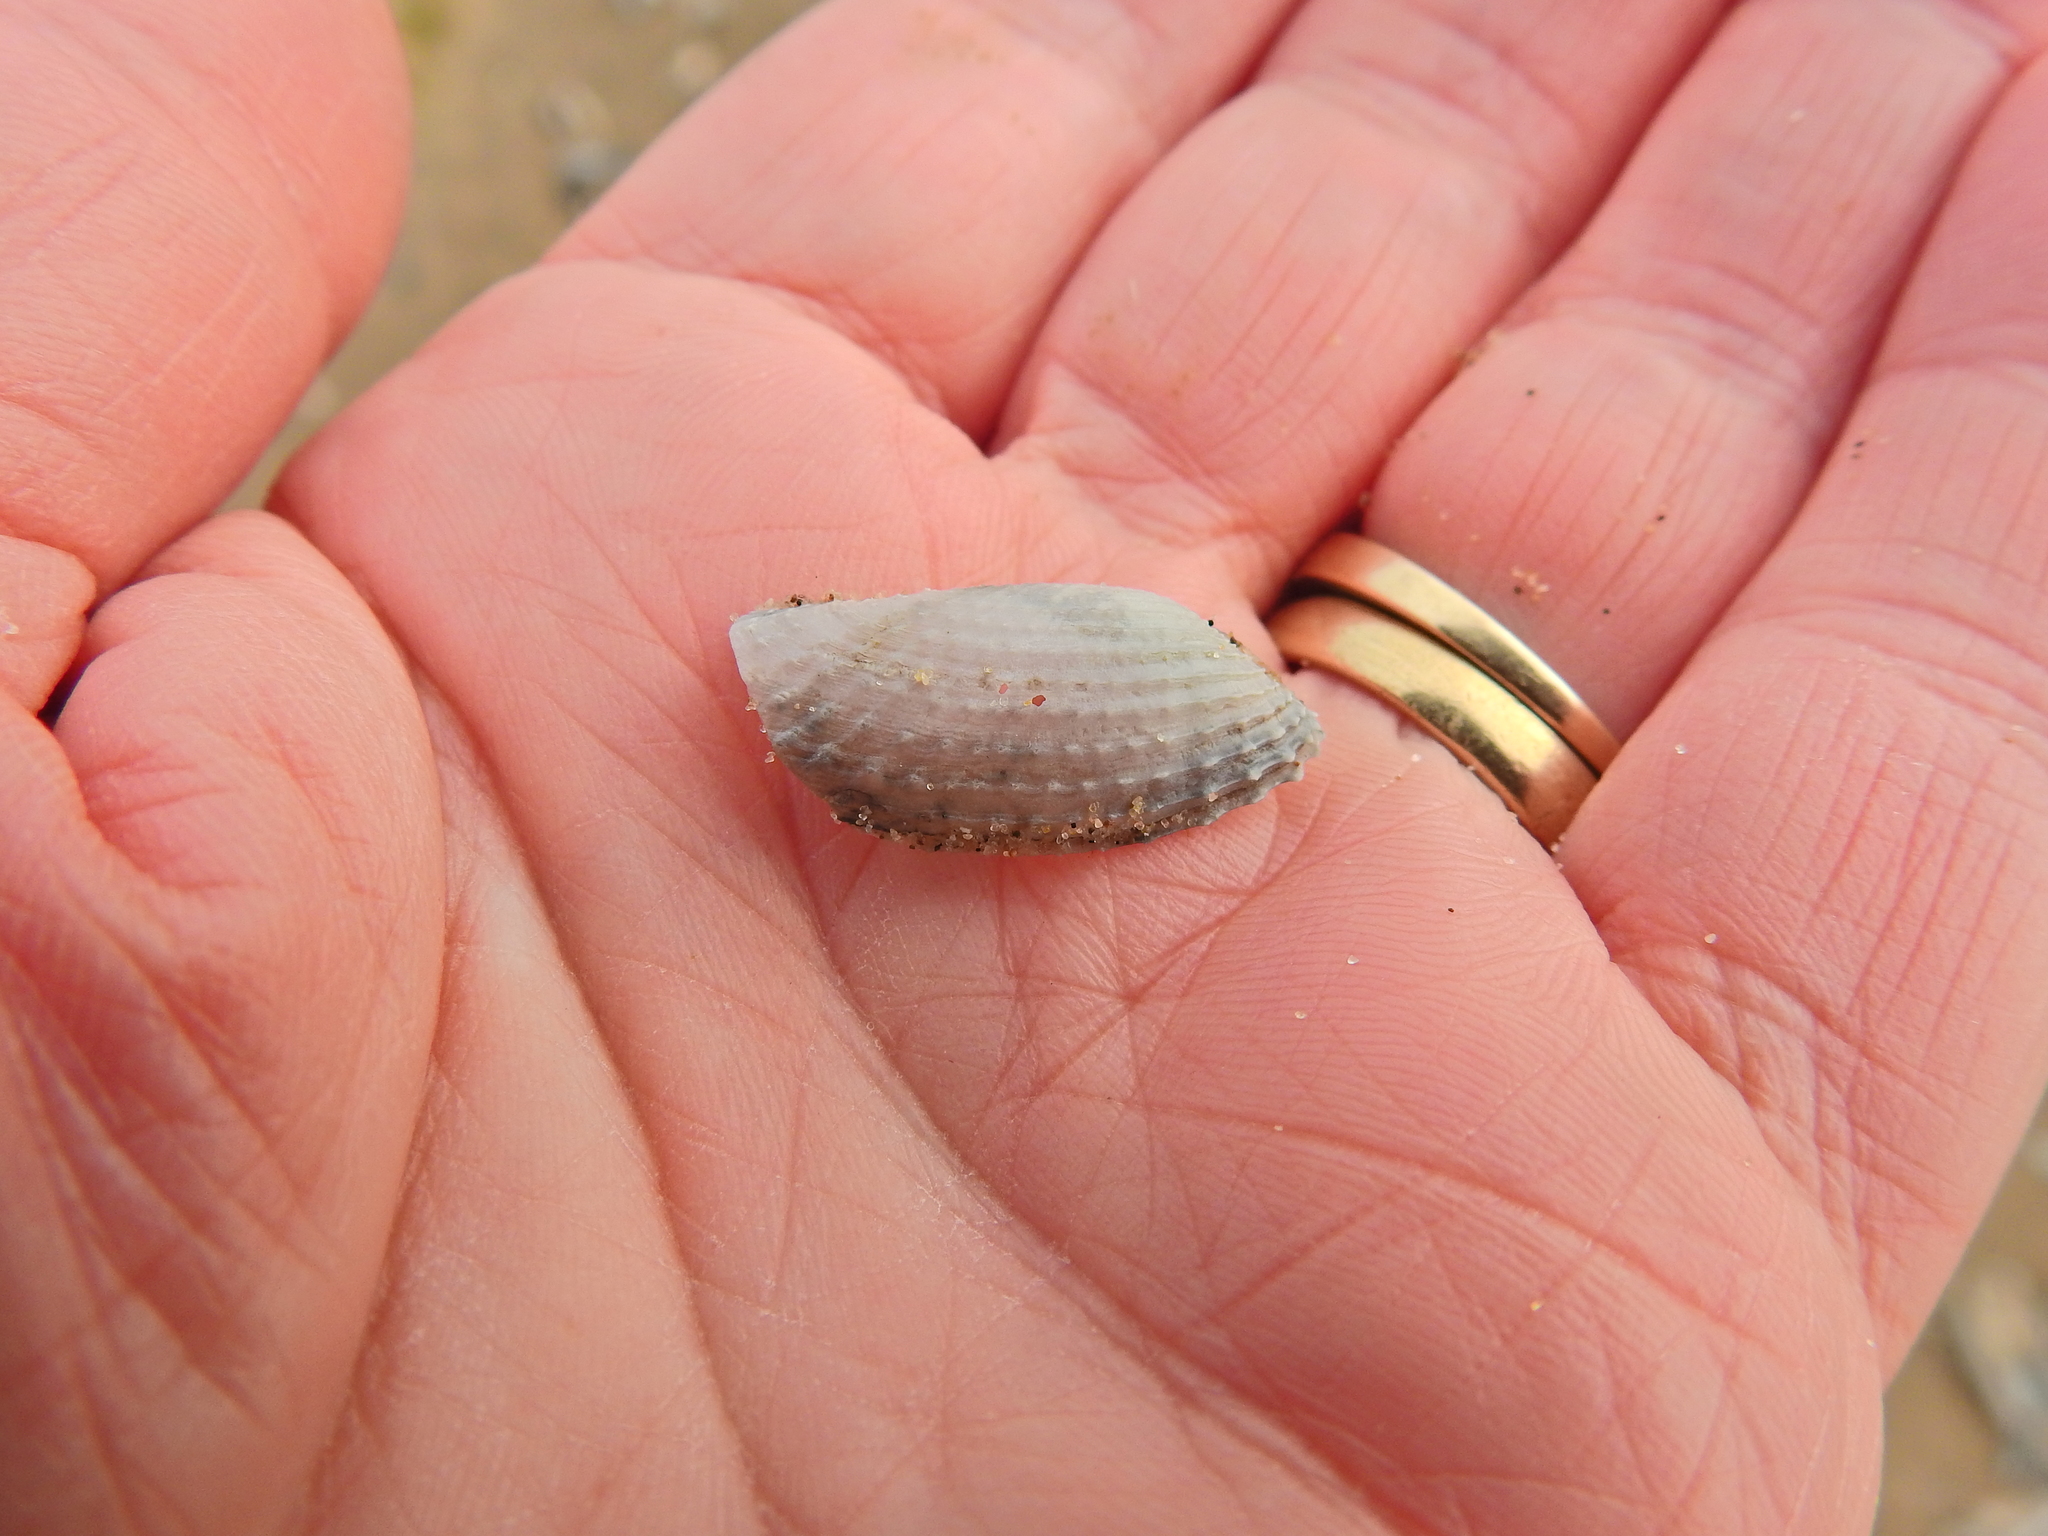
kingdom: Animalia
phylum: Mollusca
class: Bivalvia
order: Myida
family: Pholadidae
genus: Barnea
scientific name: Barnea candida
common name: White piddock
